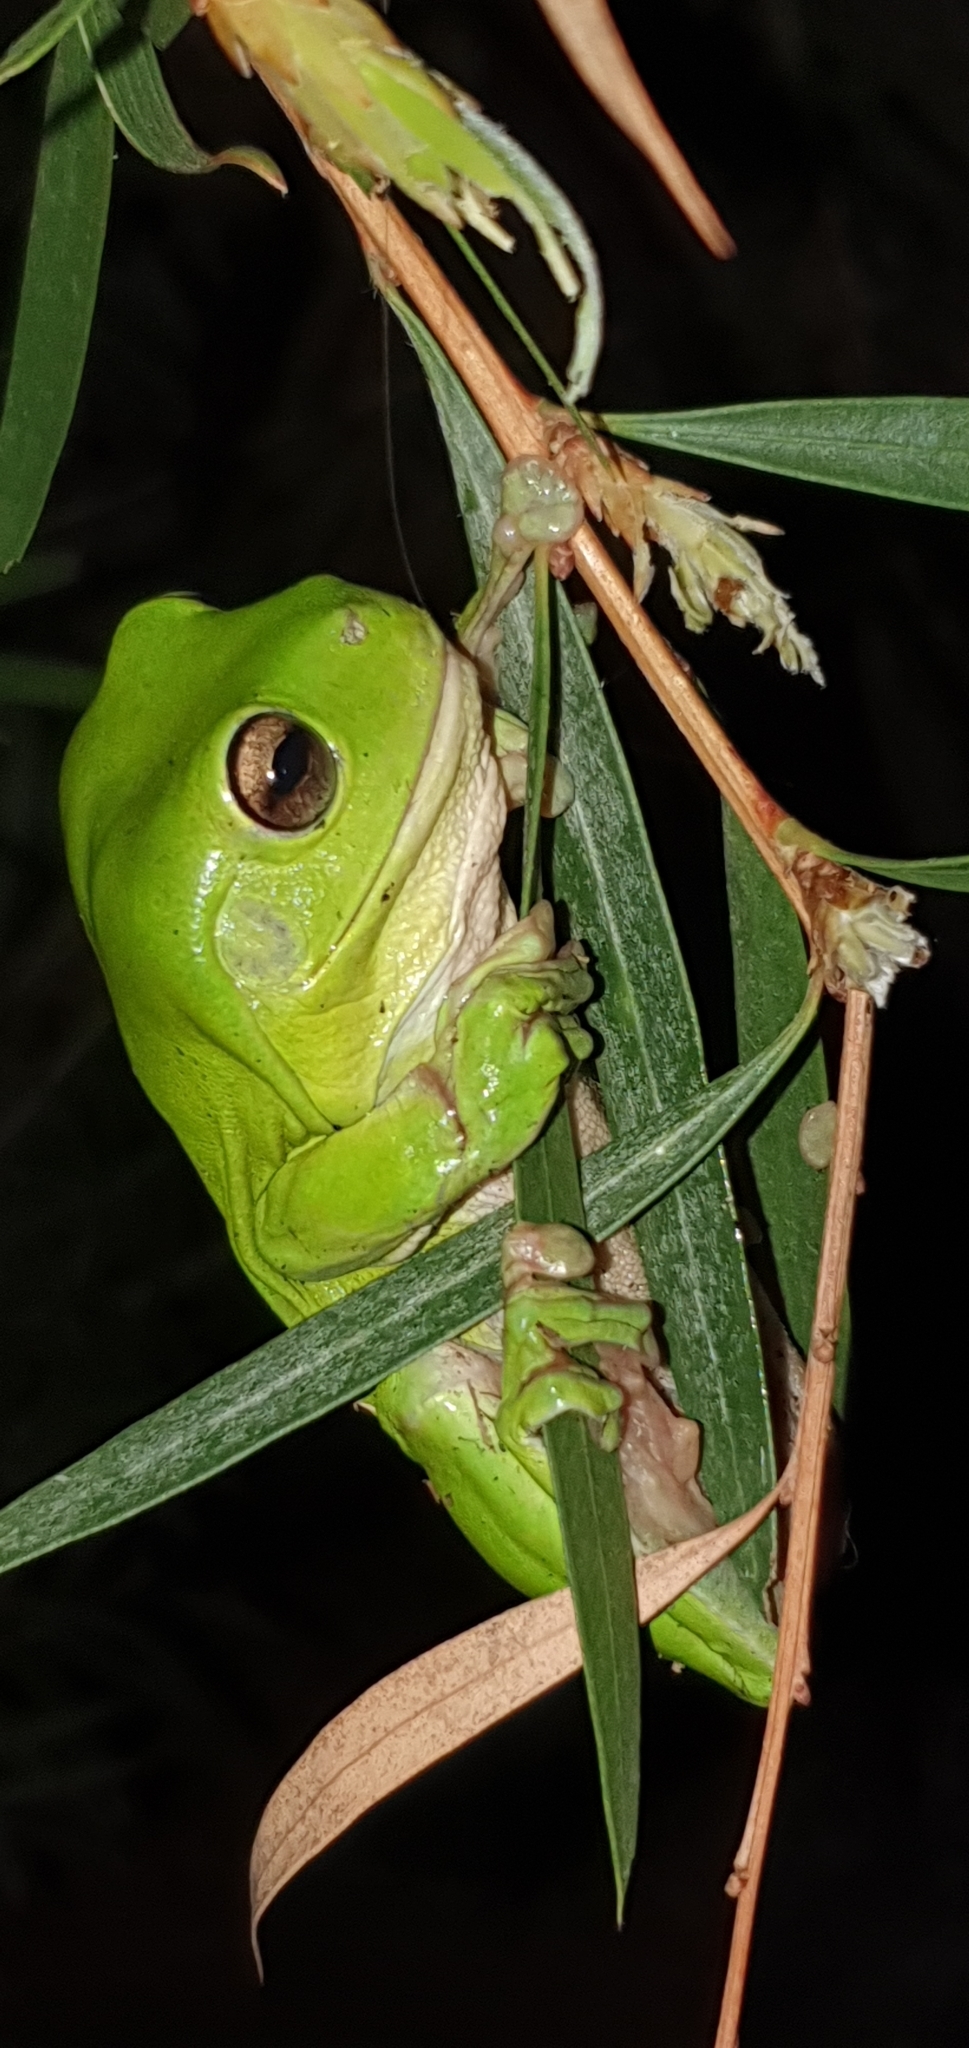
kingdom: Animalia
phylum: Chordata
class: Amphibia
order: Anura
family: Pelodryadidae
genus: Ranoidea
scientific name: Ranoidea caerulea
